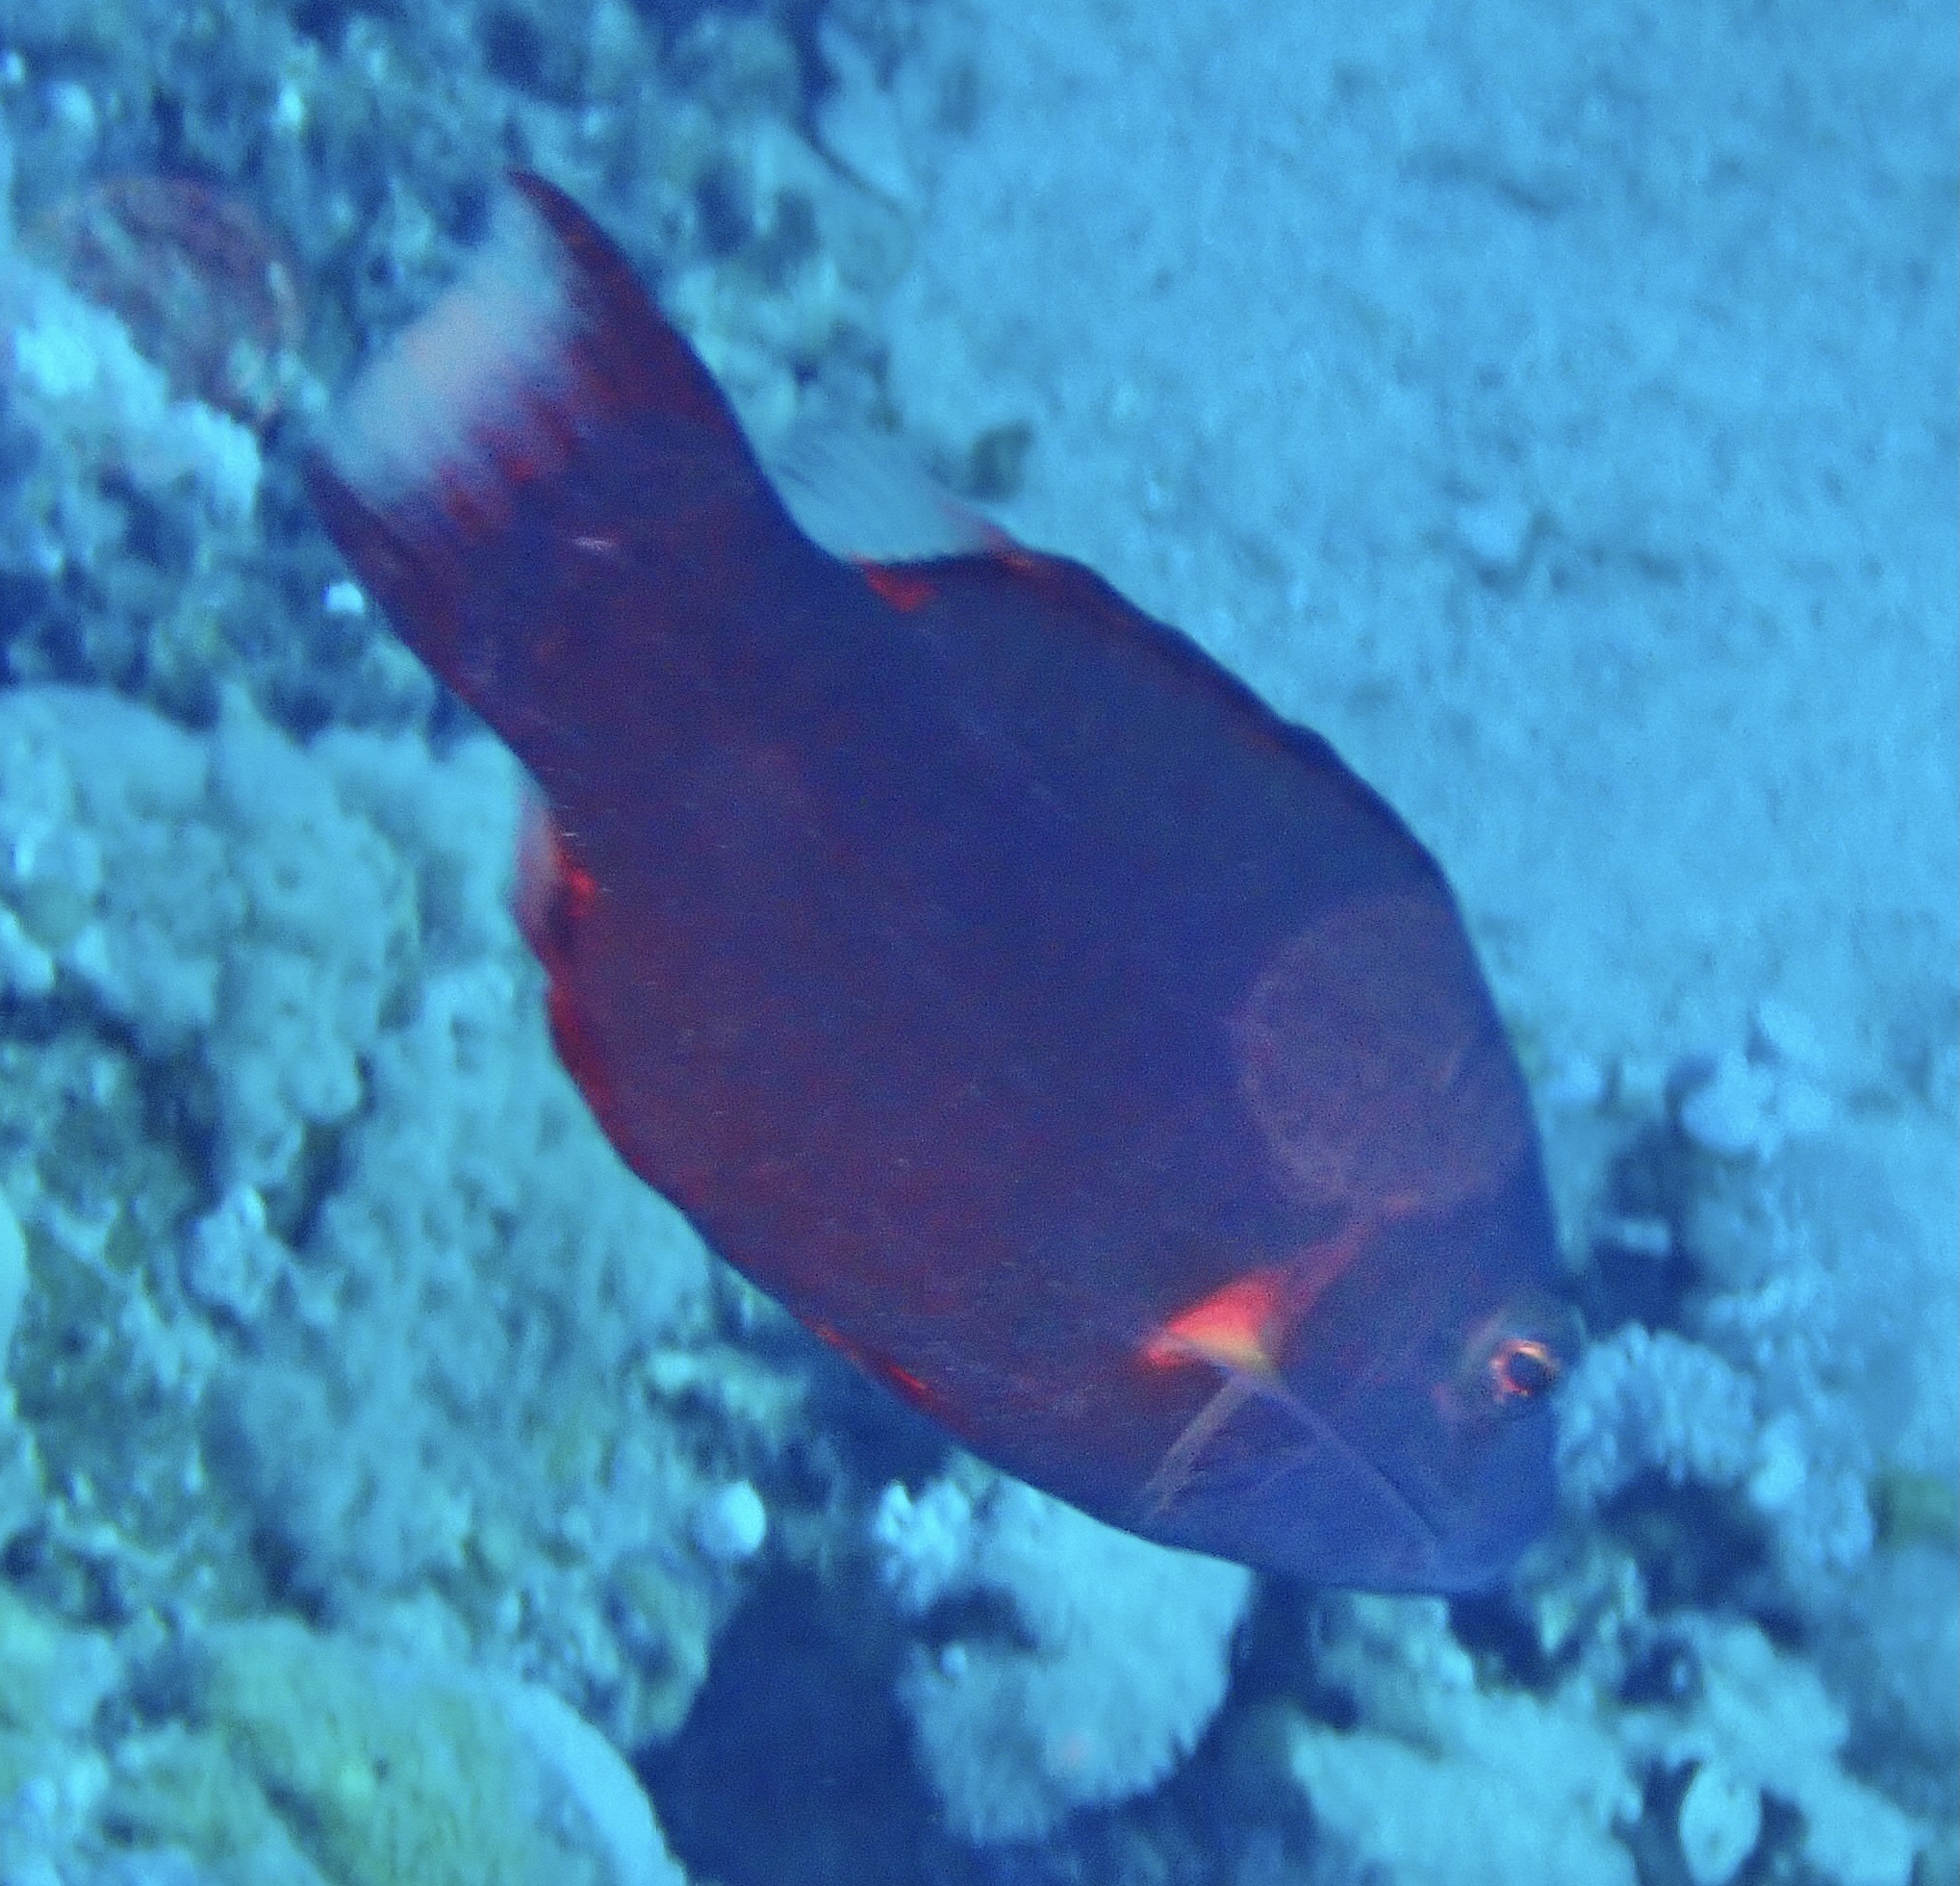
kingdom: Animalia
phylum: Chordata
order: Perciformes
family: Labridae
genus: Oxycheilinus
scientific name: Oxycheilinus digramma
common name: Bandcheek wrasse
